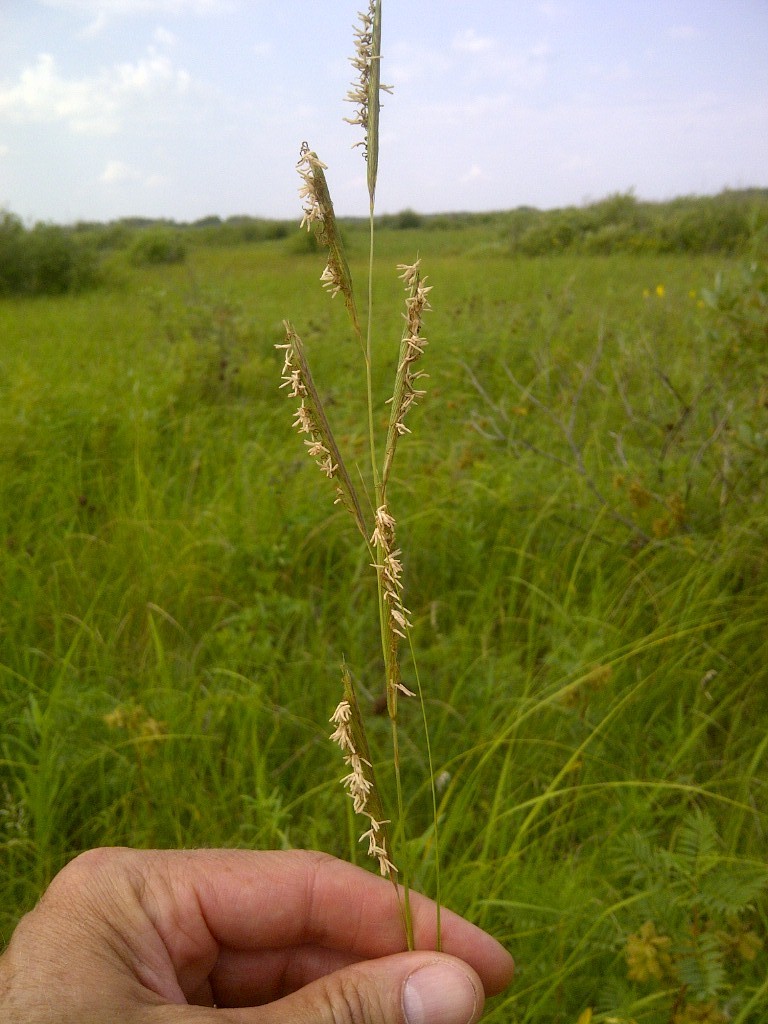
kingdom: Plantae
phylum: Tracheophyta
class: Liliopsida
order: Poales
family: Poaceae
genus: Sporobolus
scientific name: Sporobolus michauxianus
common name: Freshwater cordgrass
